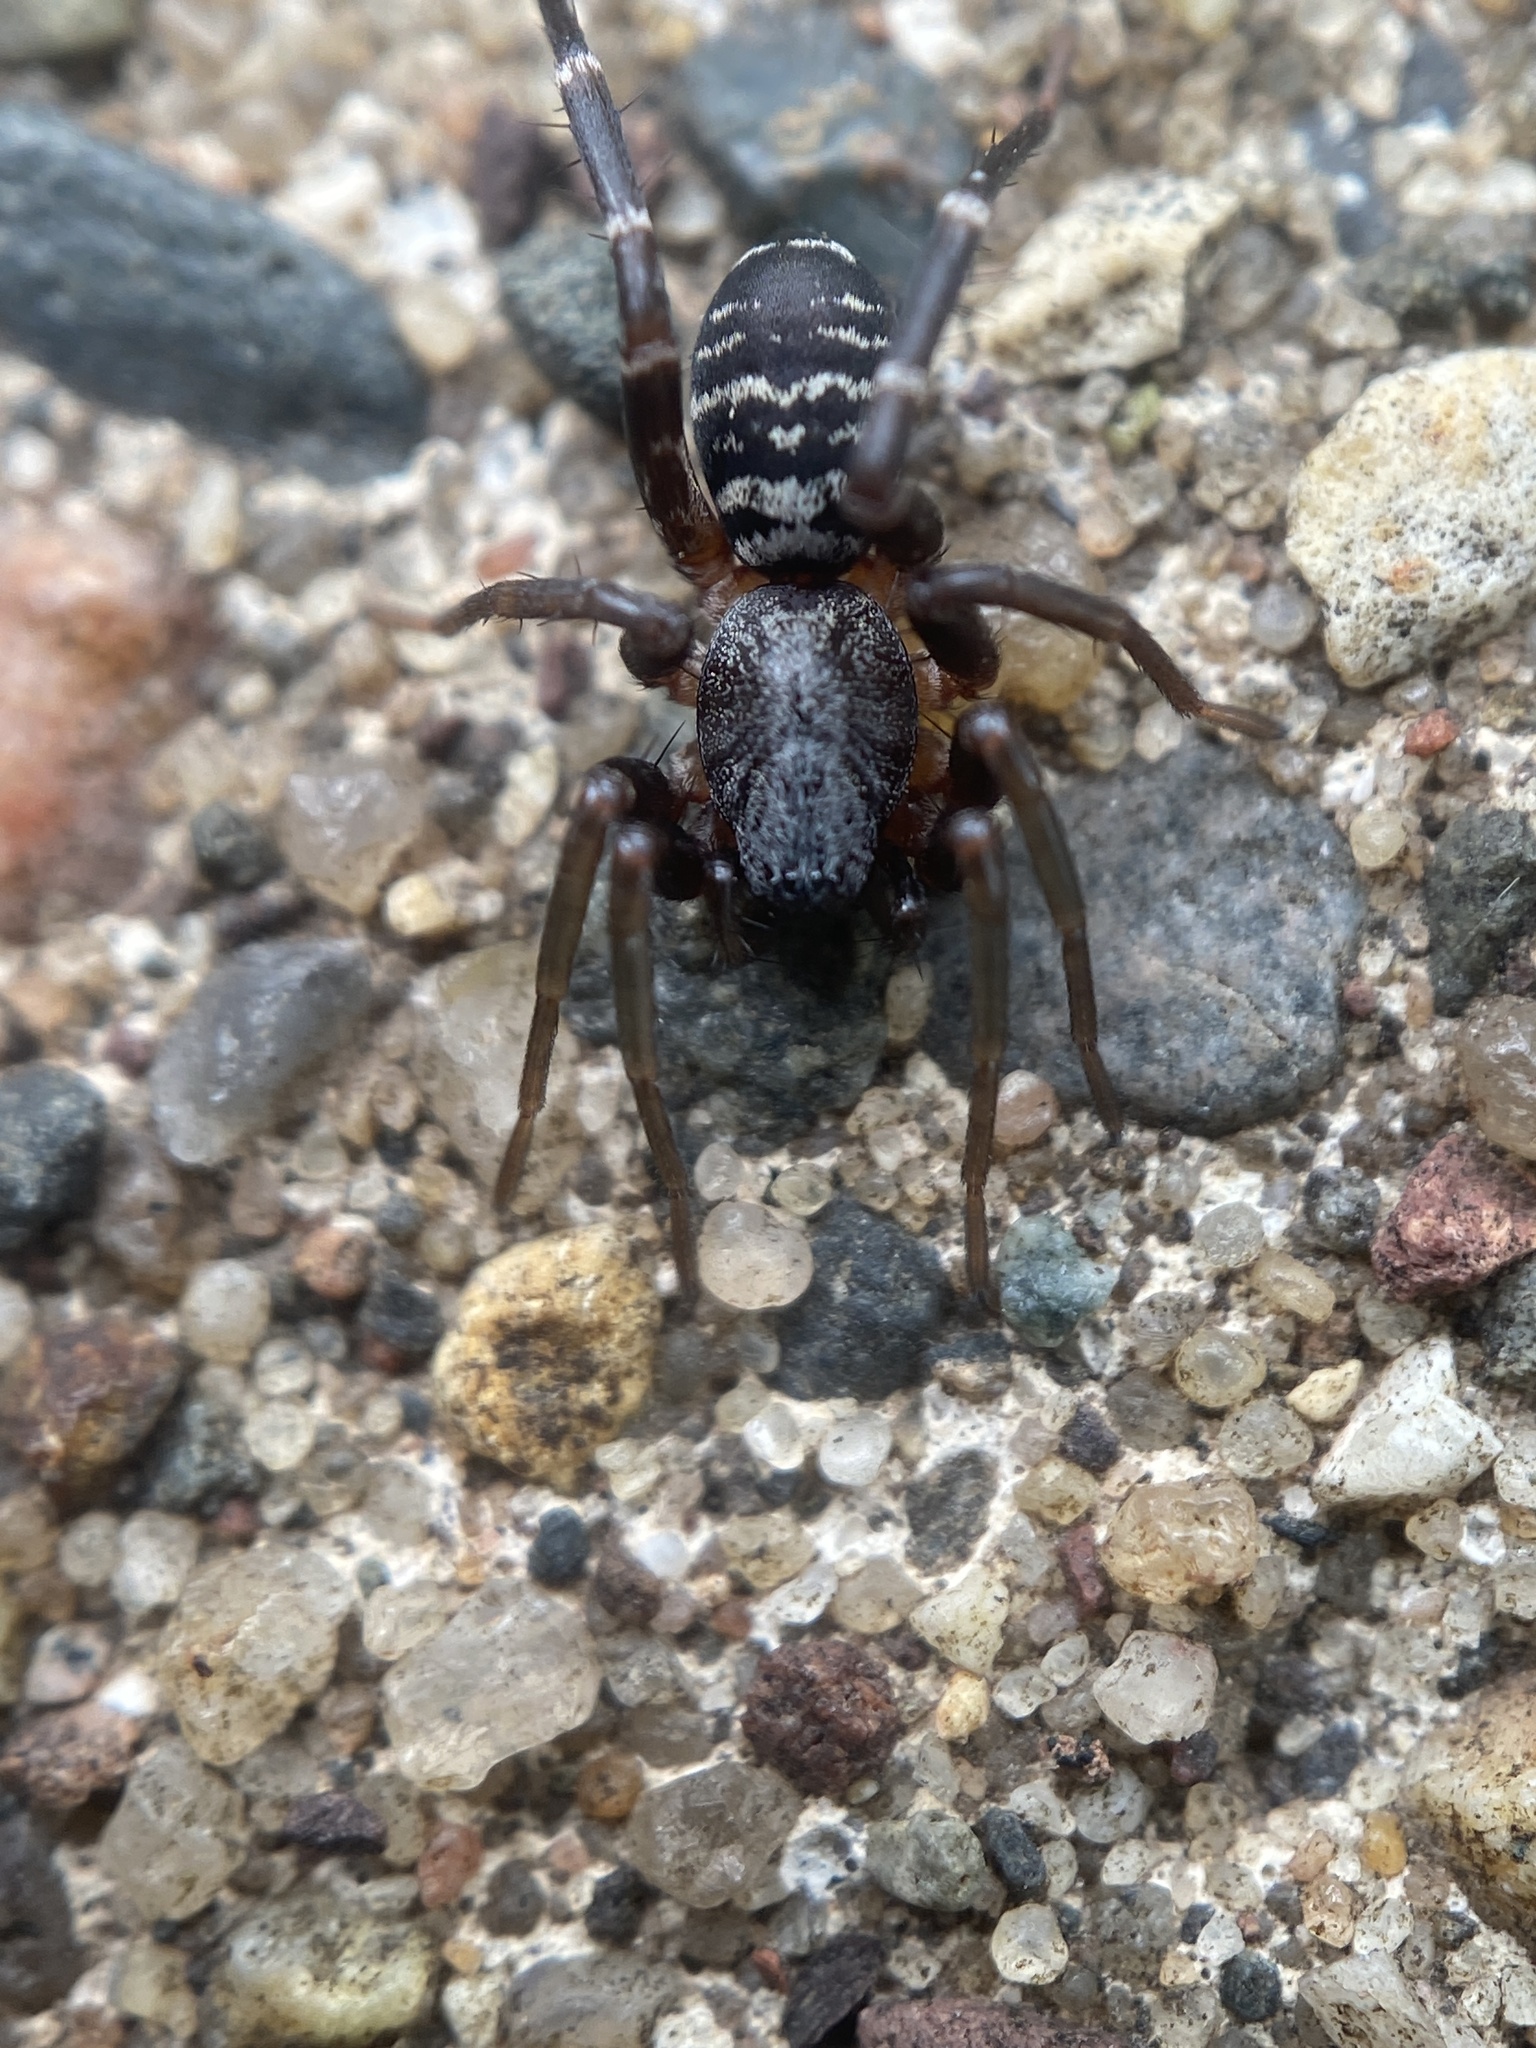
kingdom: Animalia
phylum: Arthropoda
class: Arachnida
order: Araneae
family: Corinnidae
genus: Castianeira
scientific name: Castianeira longipalpa
